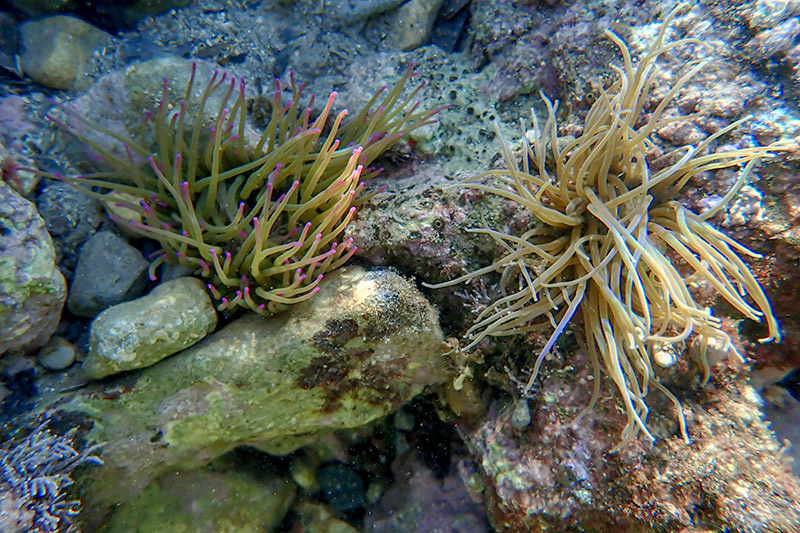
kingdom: Animalia
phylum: Cnidaria
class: Anthozoa
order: Actiniaria
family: Actiniidae
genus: Anemonia
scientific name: Anemonia viridis
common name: Snakelocks anemone
